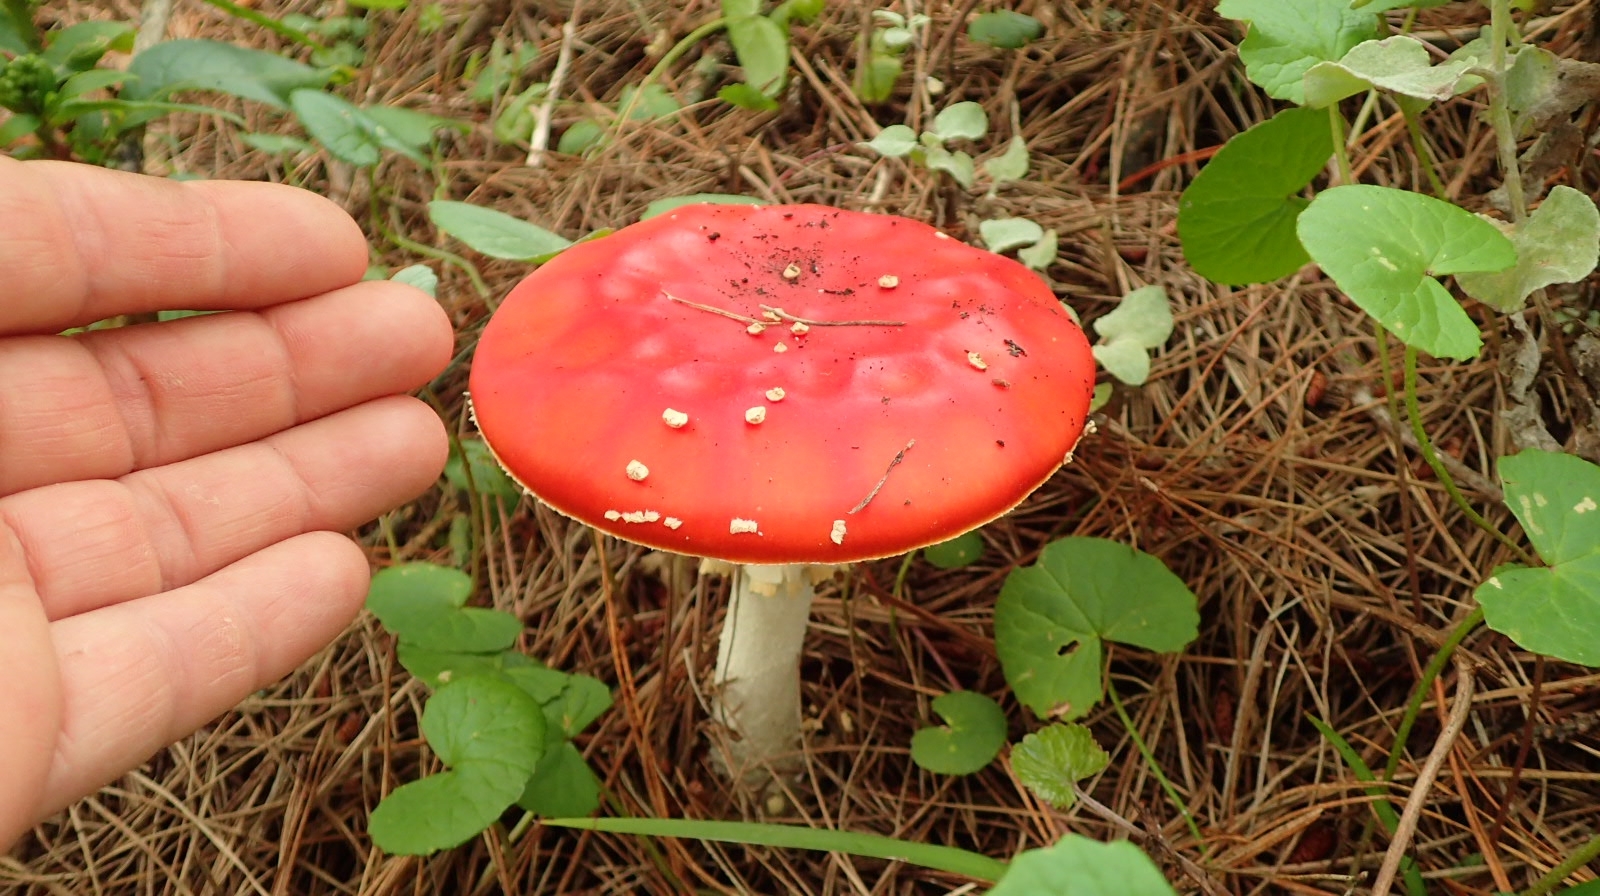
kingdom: Fungi
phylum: Basidiomycota
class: Agaricomycetes
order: Agaricales
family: Amanitaceae
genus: Amanita
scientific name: Amanita muscaria
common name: Fly agaric
